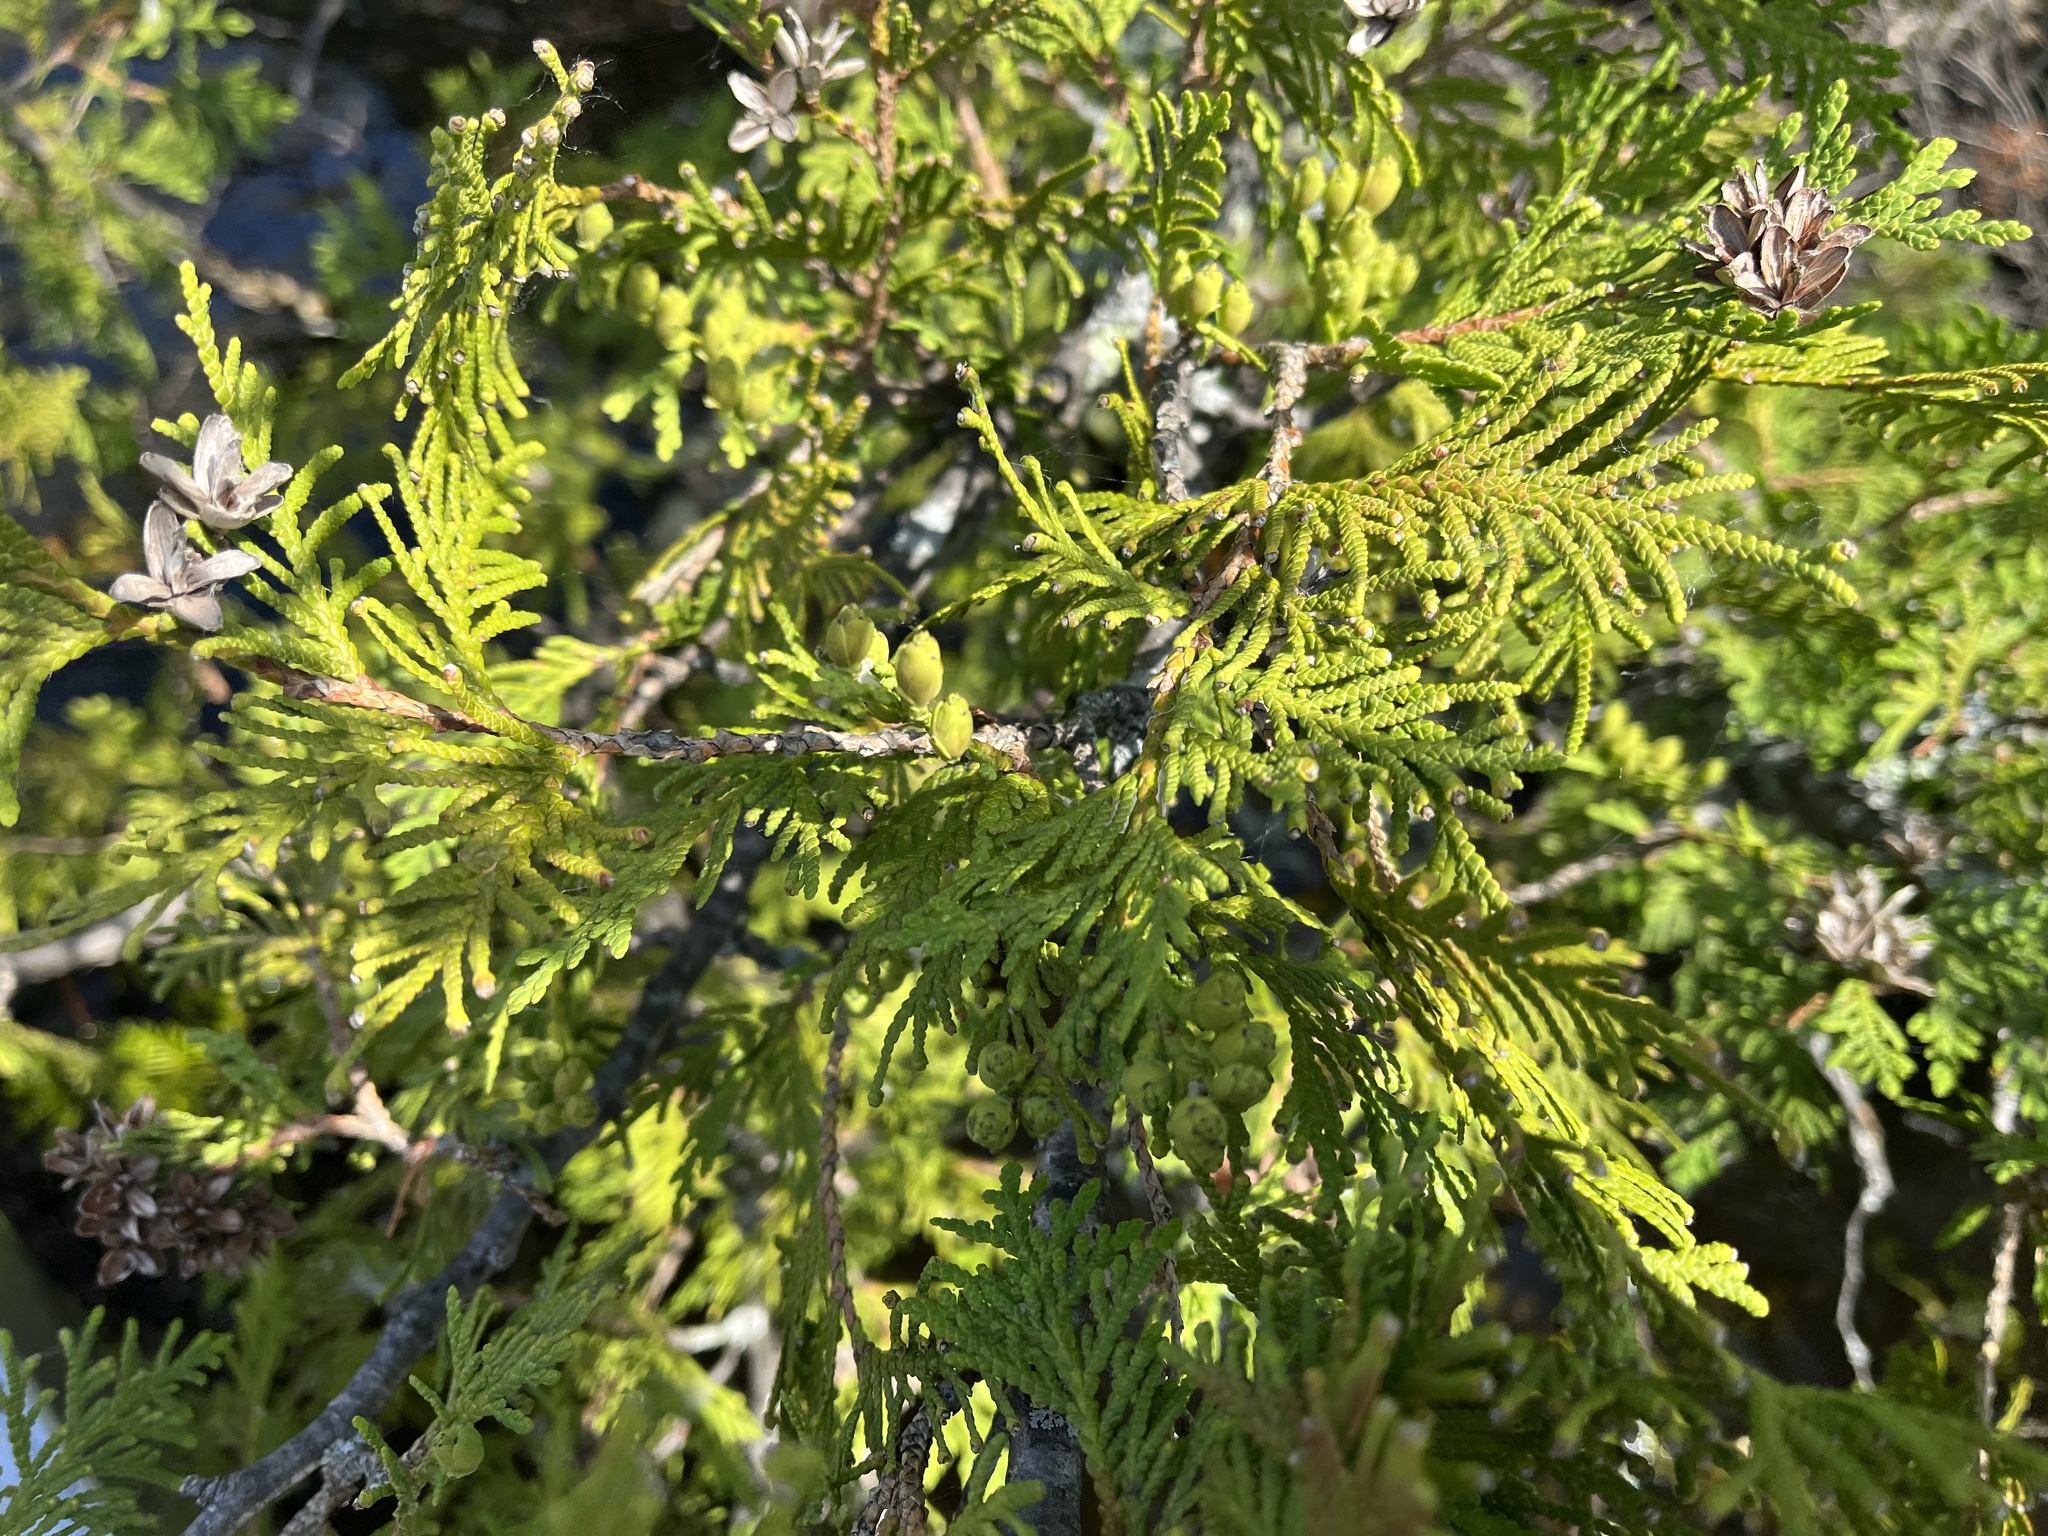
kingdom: Plantae
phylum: Tracheophyta
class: Pinopsida
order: Pinales
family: Cupressaceae
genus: Thuja
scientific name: Thuja occidentalis
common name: Northern white-cedar
